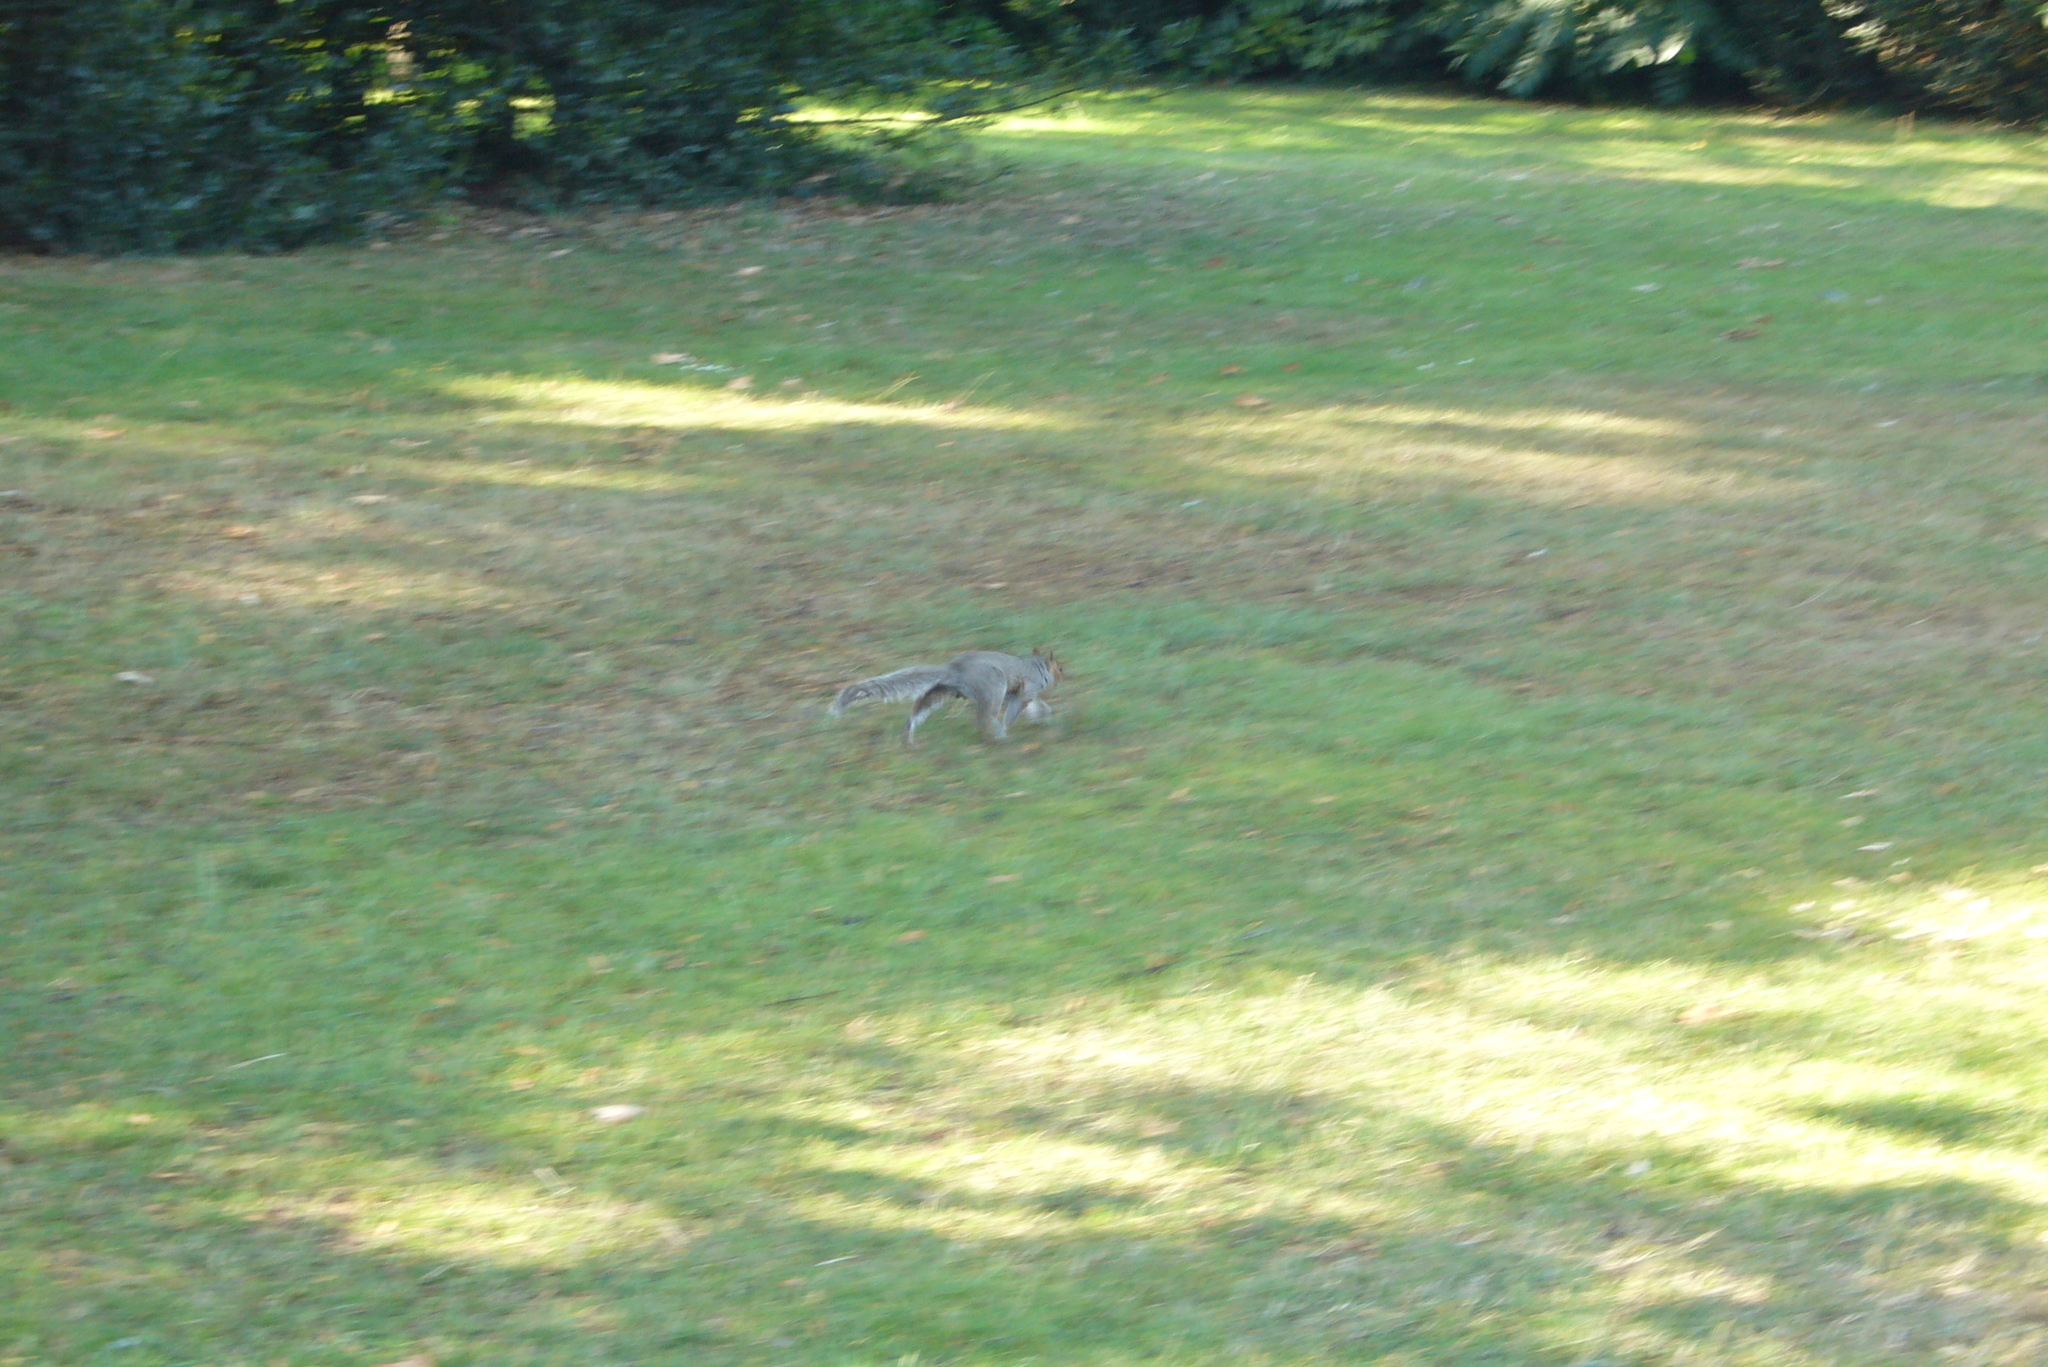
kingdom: Animalia
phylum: Chordata
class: Mammalia
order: Rodentia
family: Sciuridae
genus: Sciurus
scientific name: Sciurus carolinensis
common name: Eastern gray squirrel
